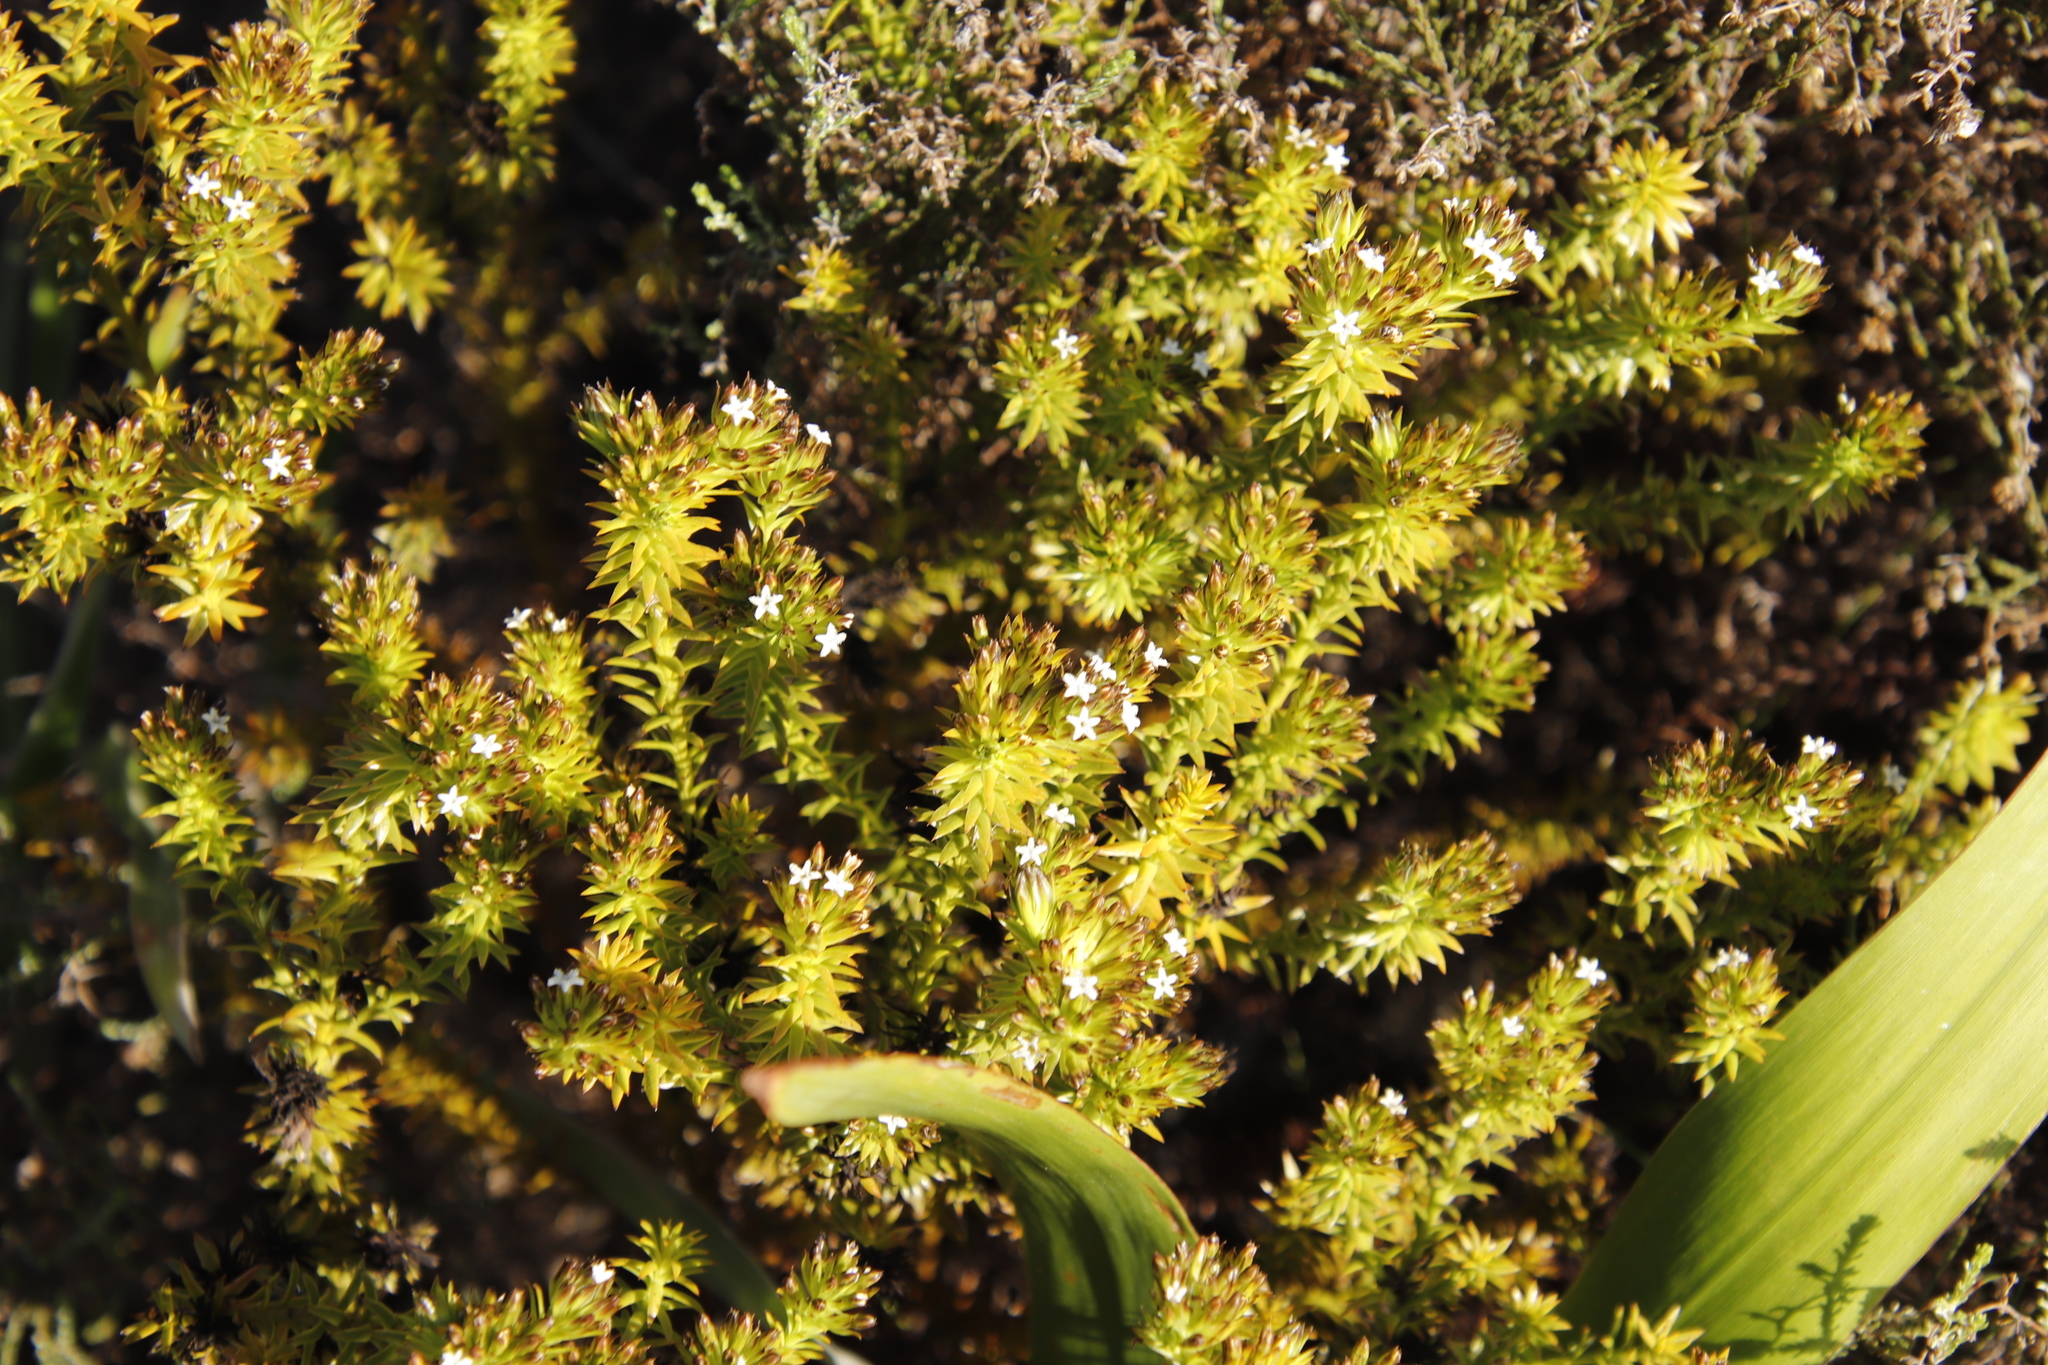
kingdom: Plantae
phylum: Tracheophyta
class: Magnoliopsida
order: Santalales
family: Thesiaceae
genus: Thesium
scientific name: Thesium viridifolium
